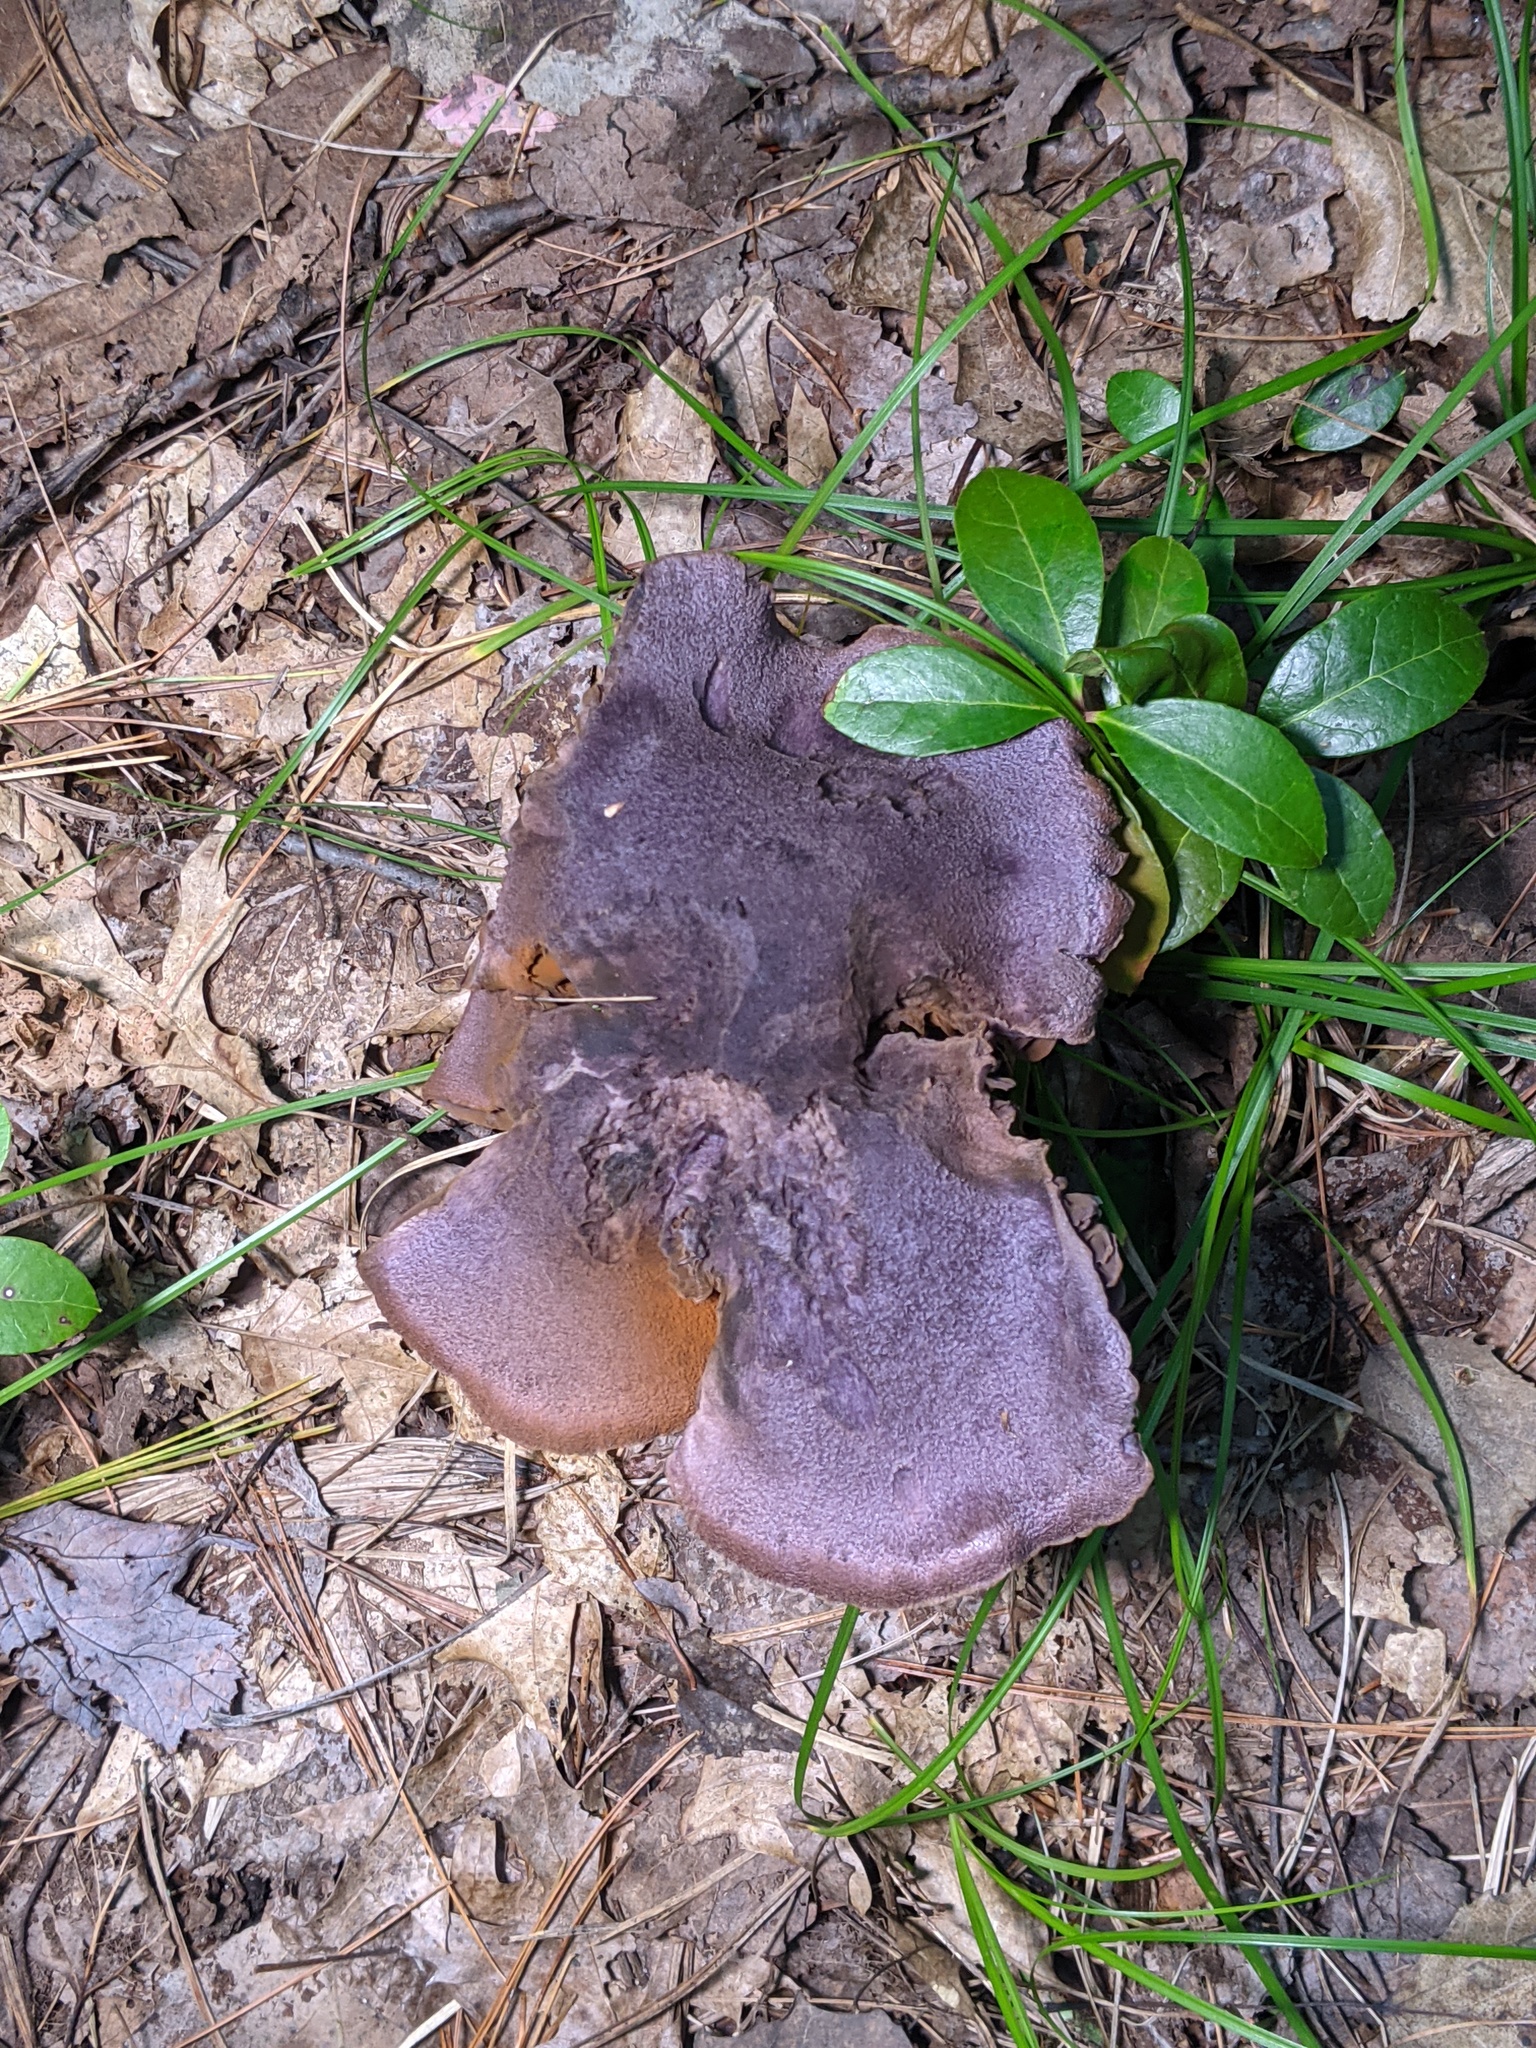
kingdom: Fungi
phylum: Basidiomycota
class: Agaricomycetes
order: Agaricales
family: Cortinariaceae
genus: Cortinarius
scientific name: Cortinarius violaceus
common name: Violet webcap
